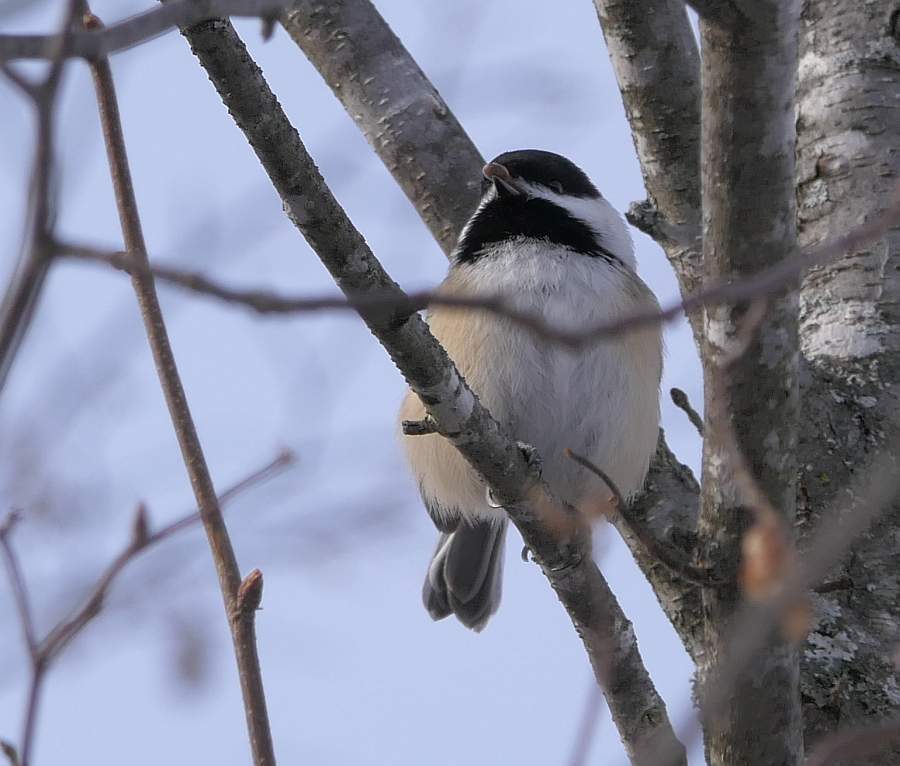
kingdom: Animalia
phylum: Chordata
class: Aves
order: Passeriformes
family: Paridae
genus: Poecile
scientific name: Poecile atricapillus
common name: Black-capped chickadee
